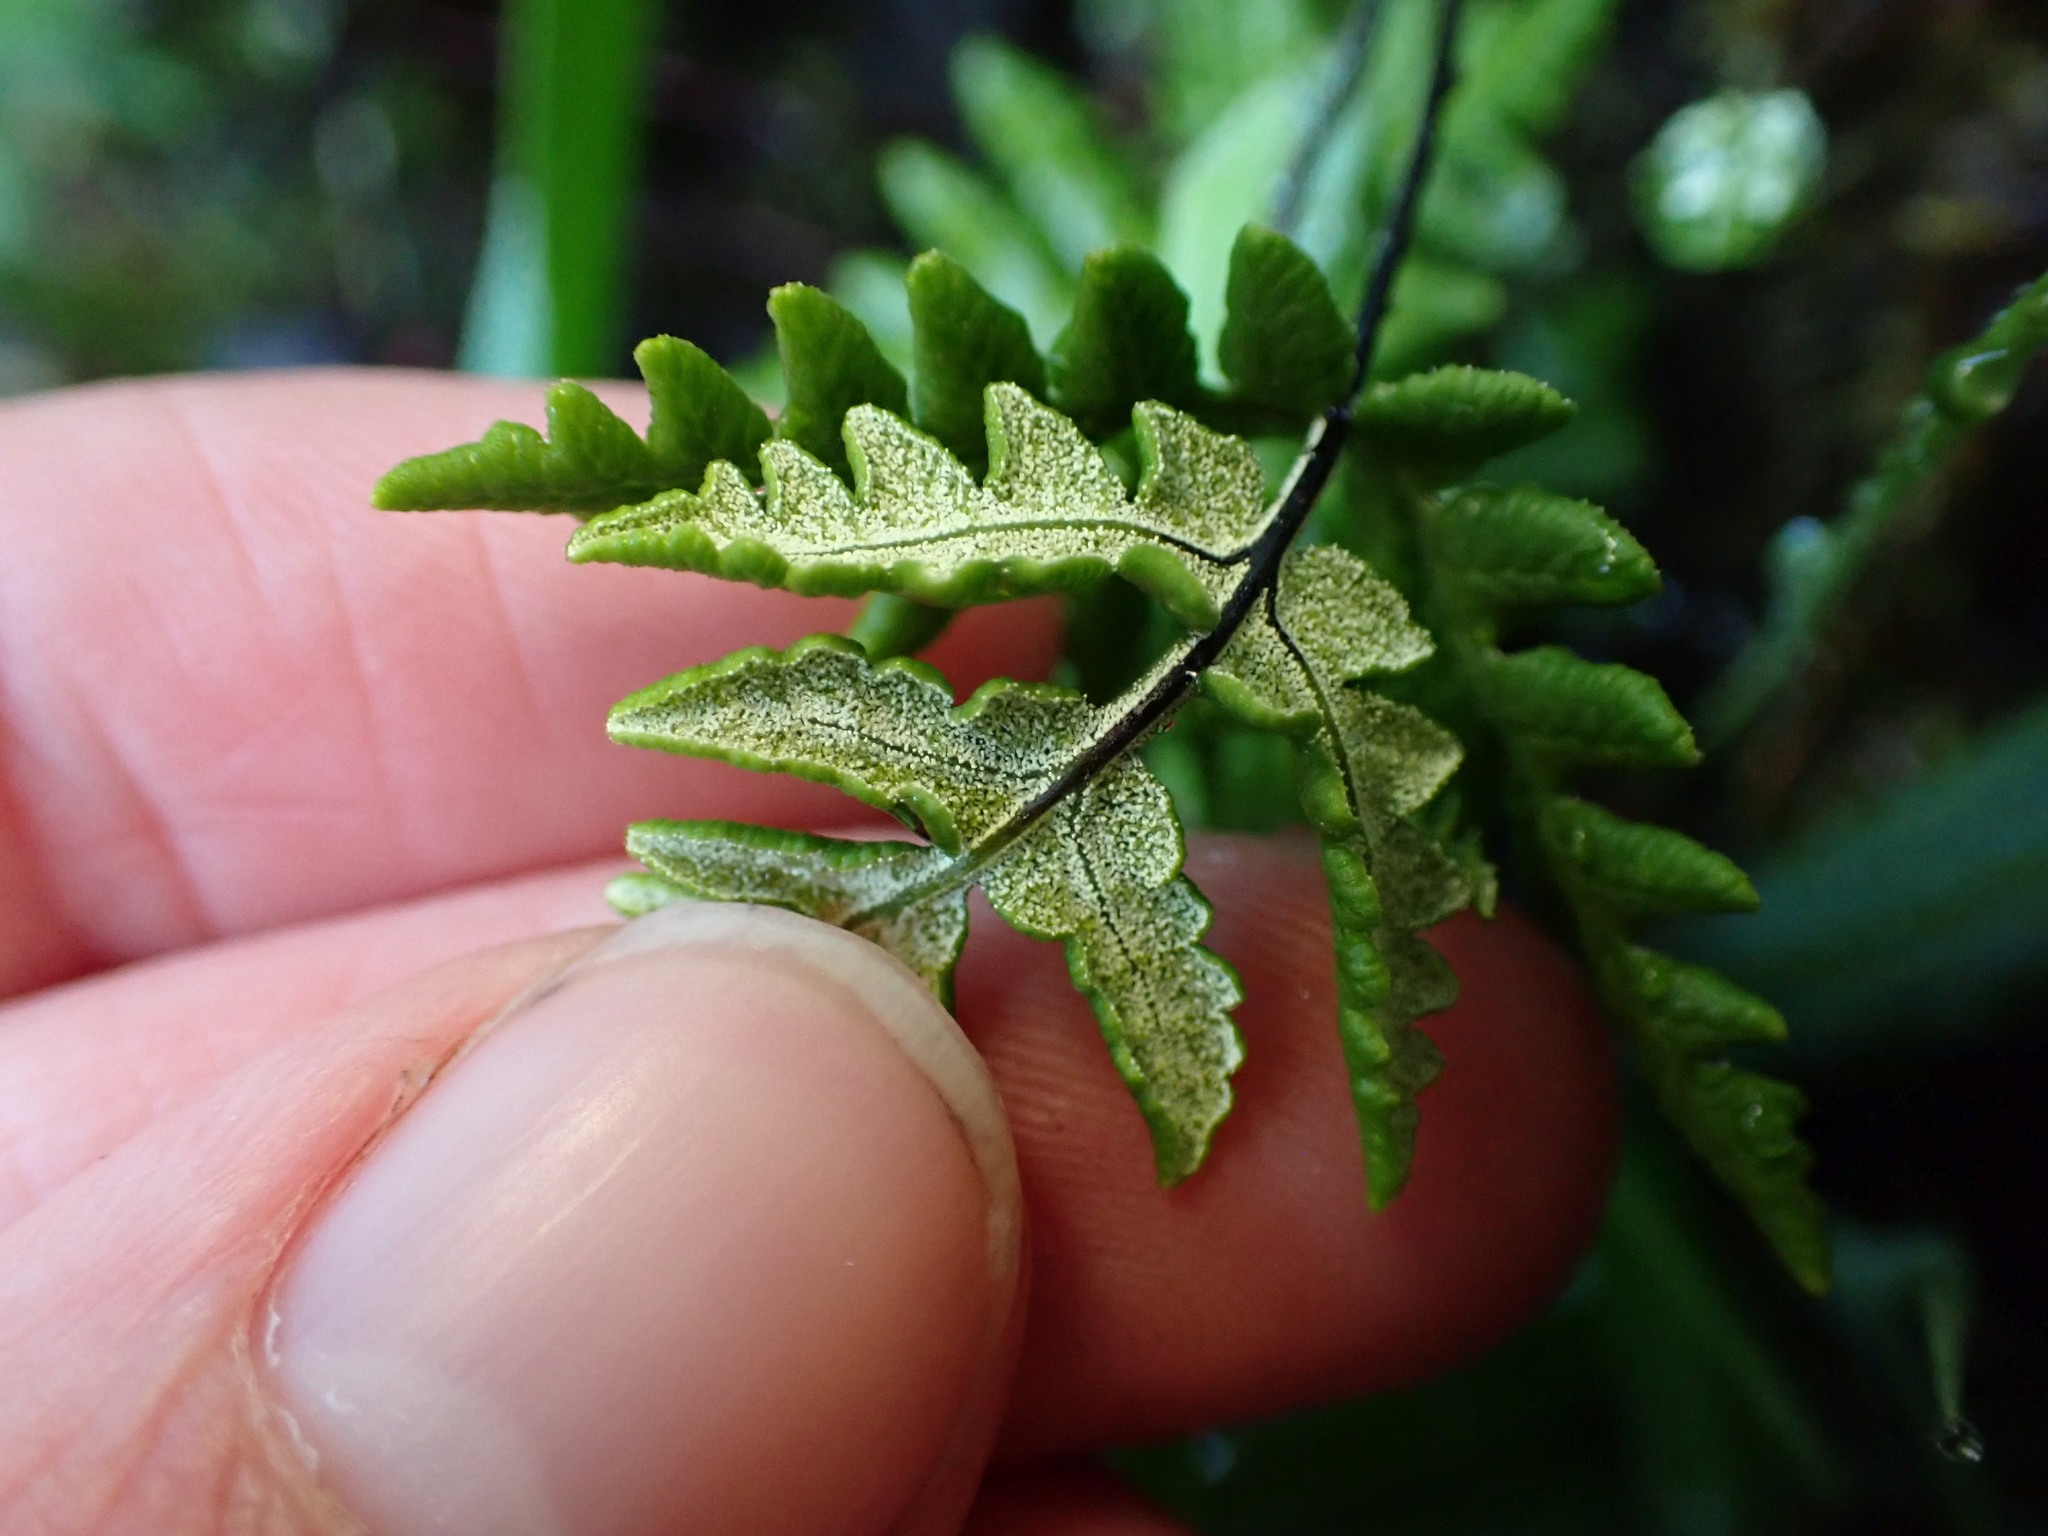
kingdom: Plantae
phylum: Tracheophyta
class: Polypodiopsida
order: Polypodiales
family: Pteridaceae
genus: Pentagramma
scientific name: Pentagramma triangularis
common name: Gold fern
